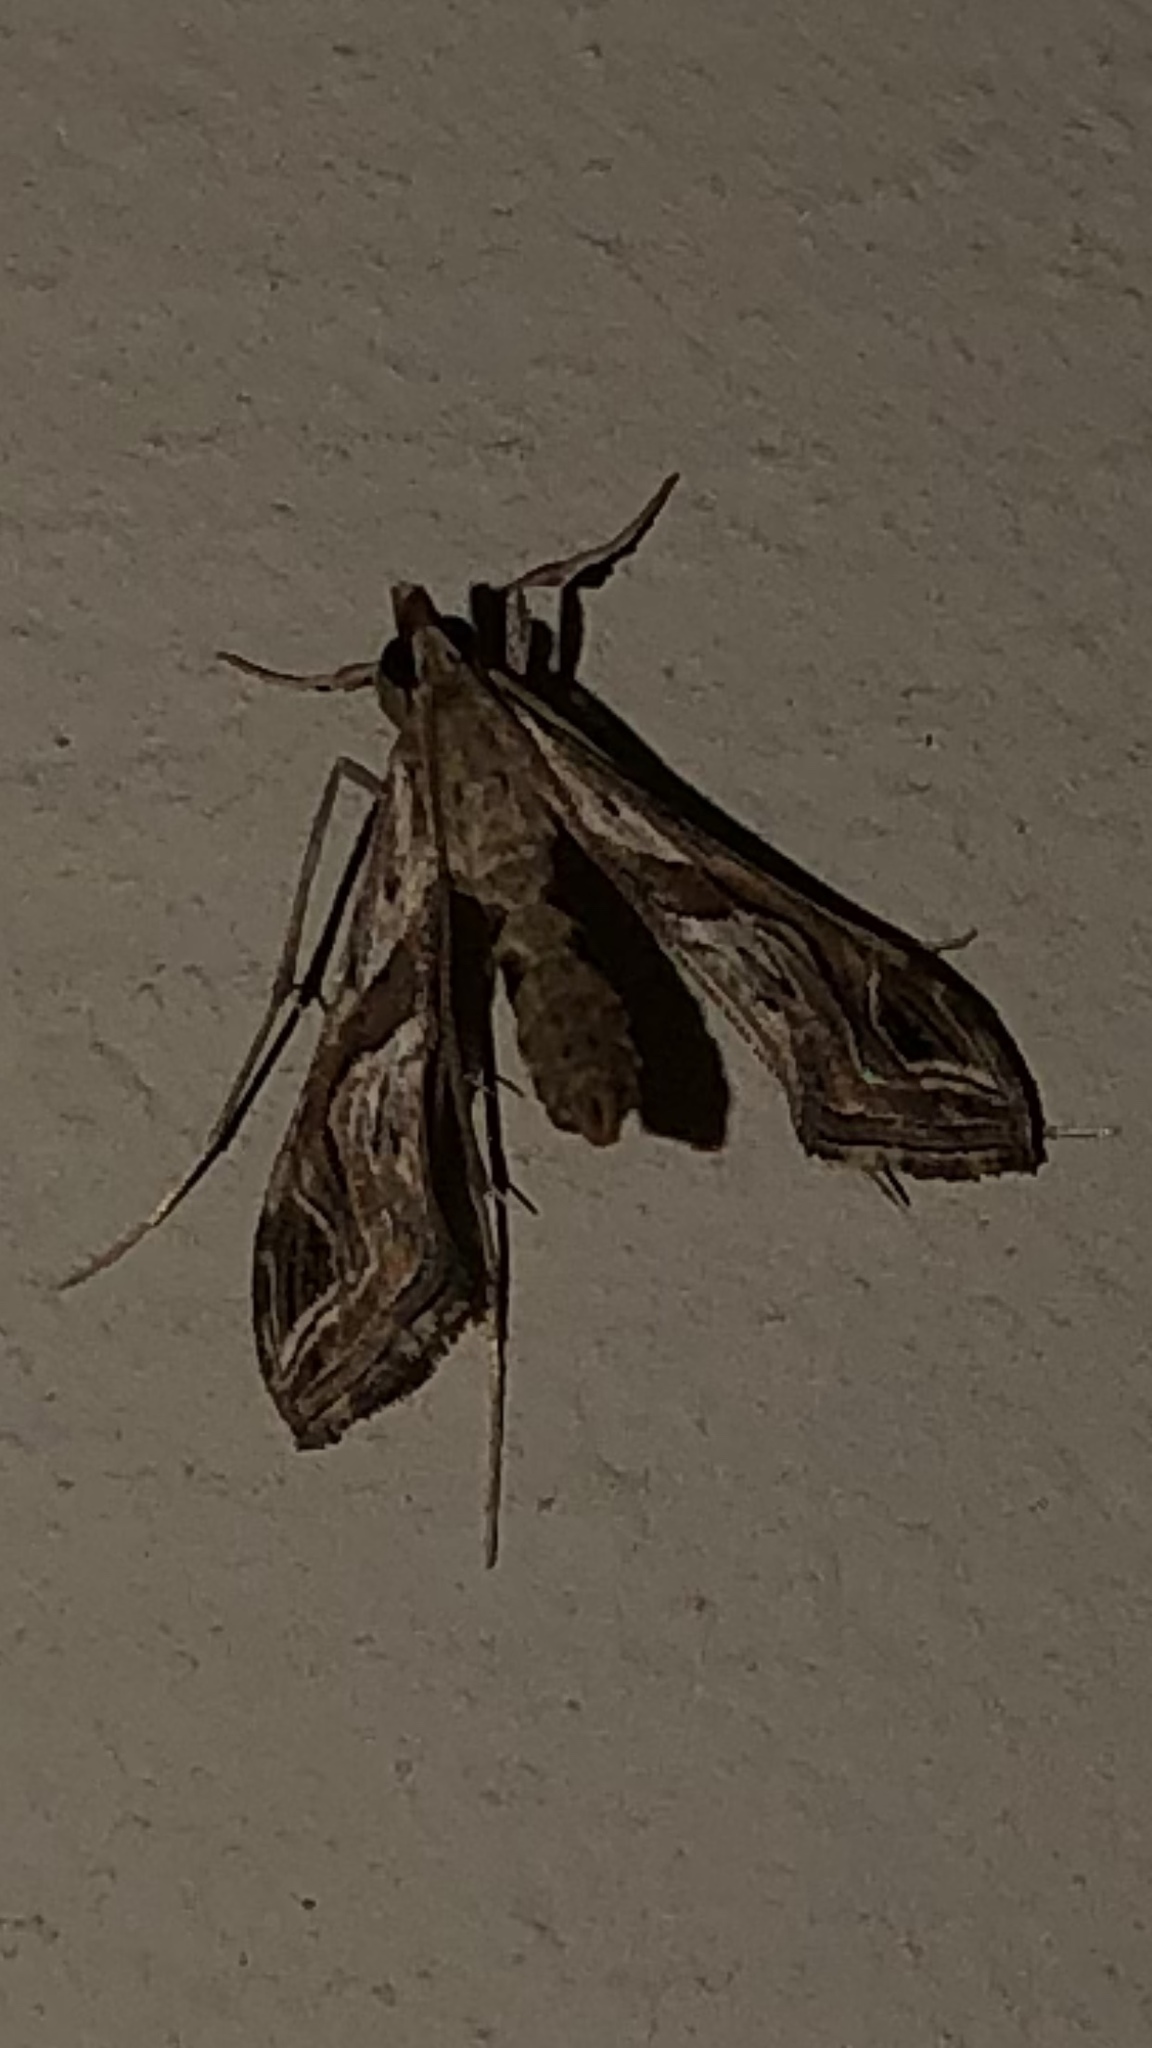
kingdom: Animalia
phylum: Arthropoda
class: Insecta
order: Lepidoptera
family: Crambidae
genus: Lineodes
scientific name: Lineodes integra
